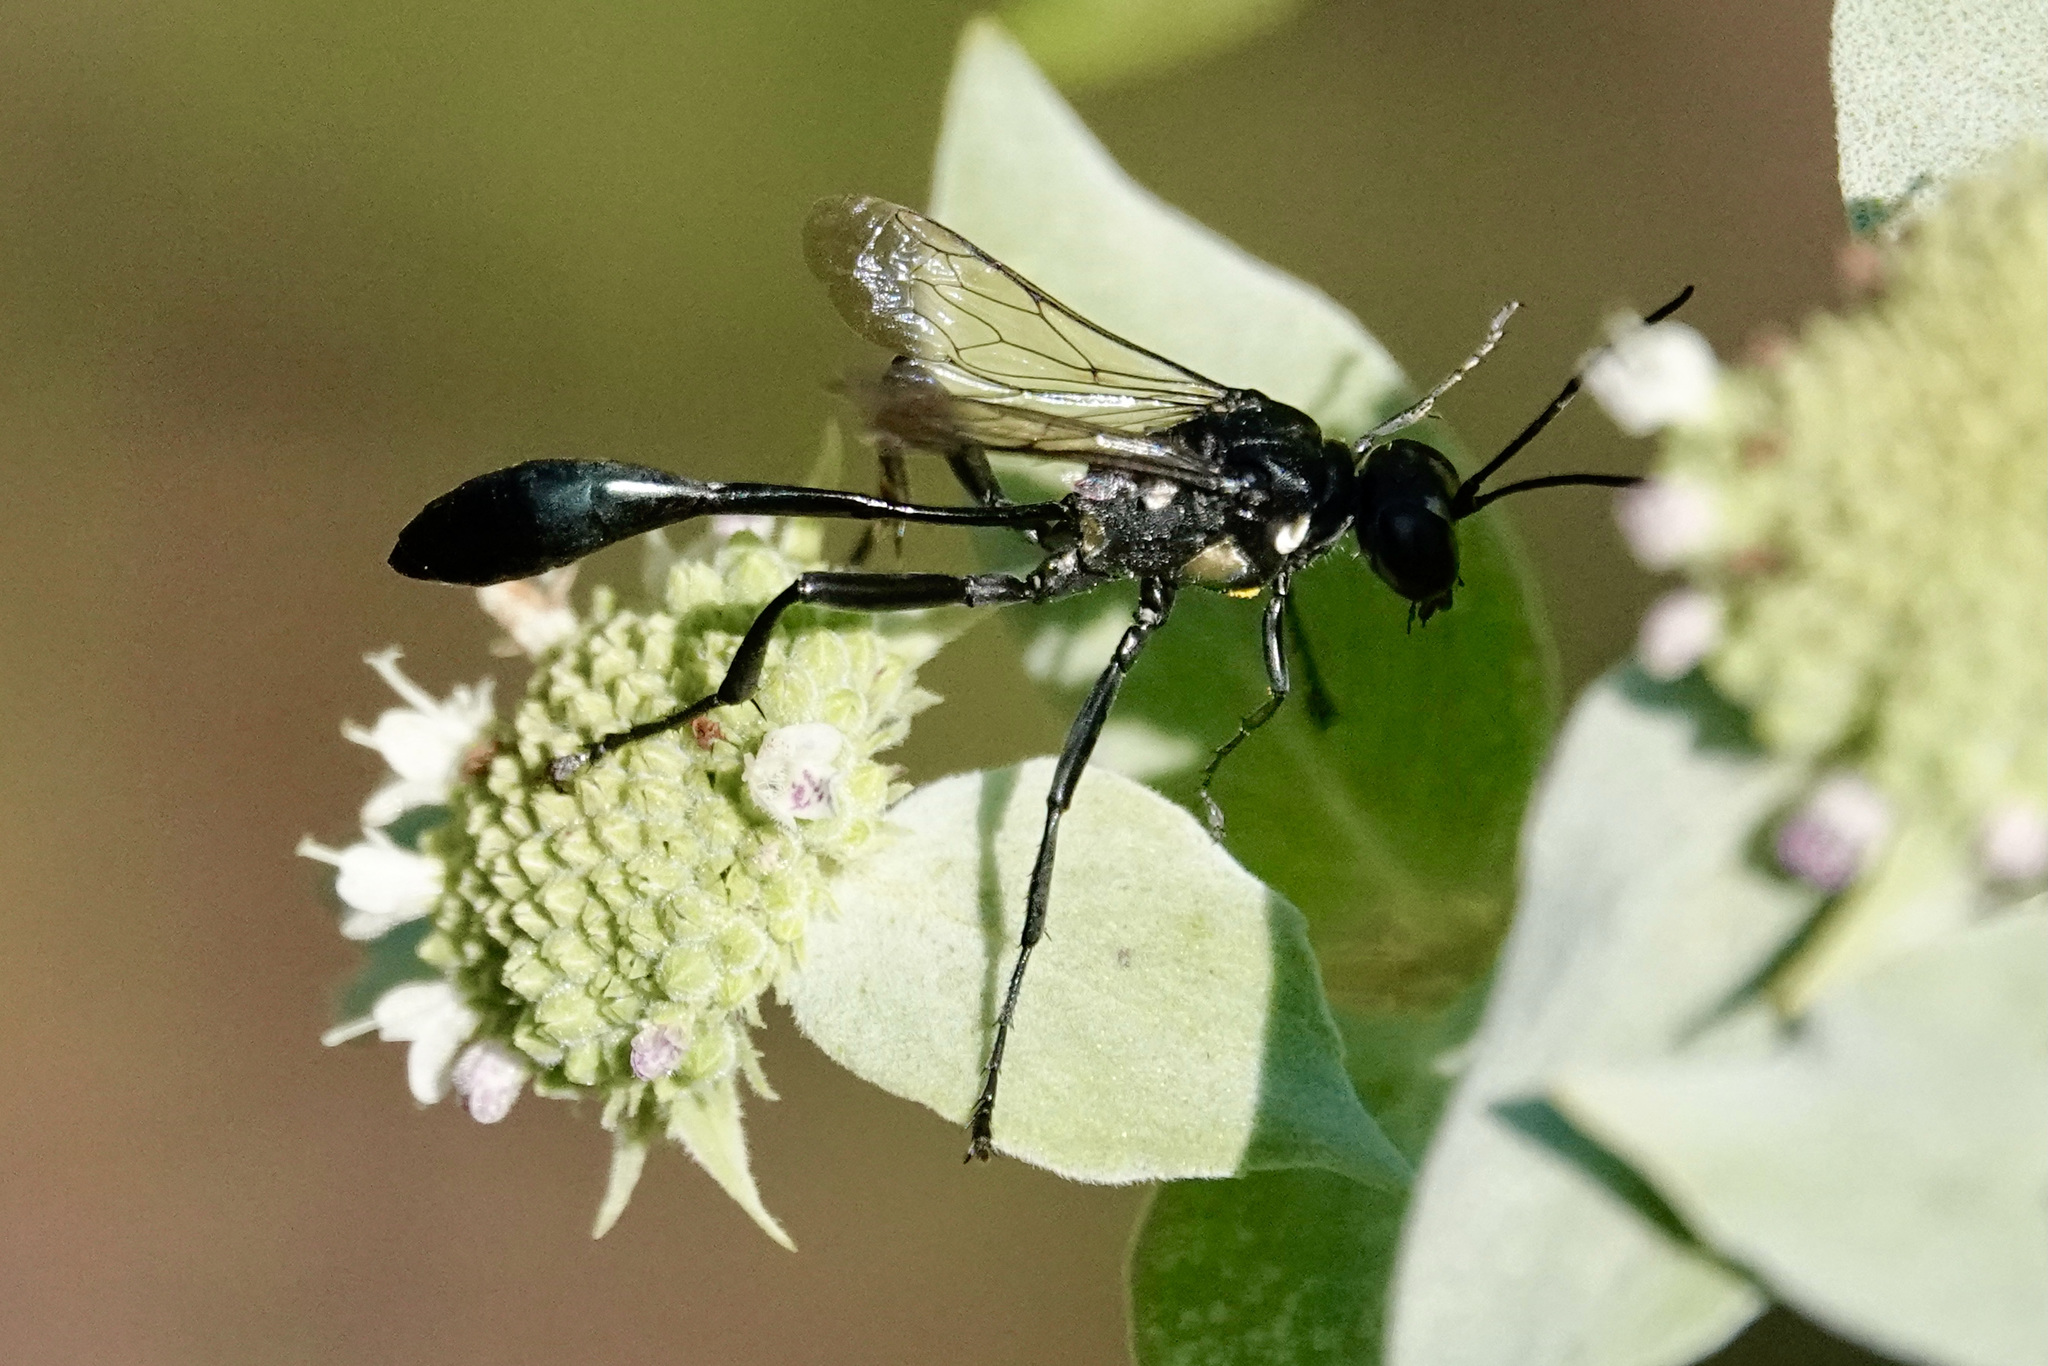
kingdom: Animalia
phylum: Arthropoda
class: Insecta
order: Hymenoptera
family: Sphecidae
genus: Eremnophila
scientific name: Eremnophila aureonotata
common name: Gold-marked thread-waisted wasp
